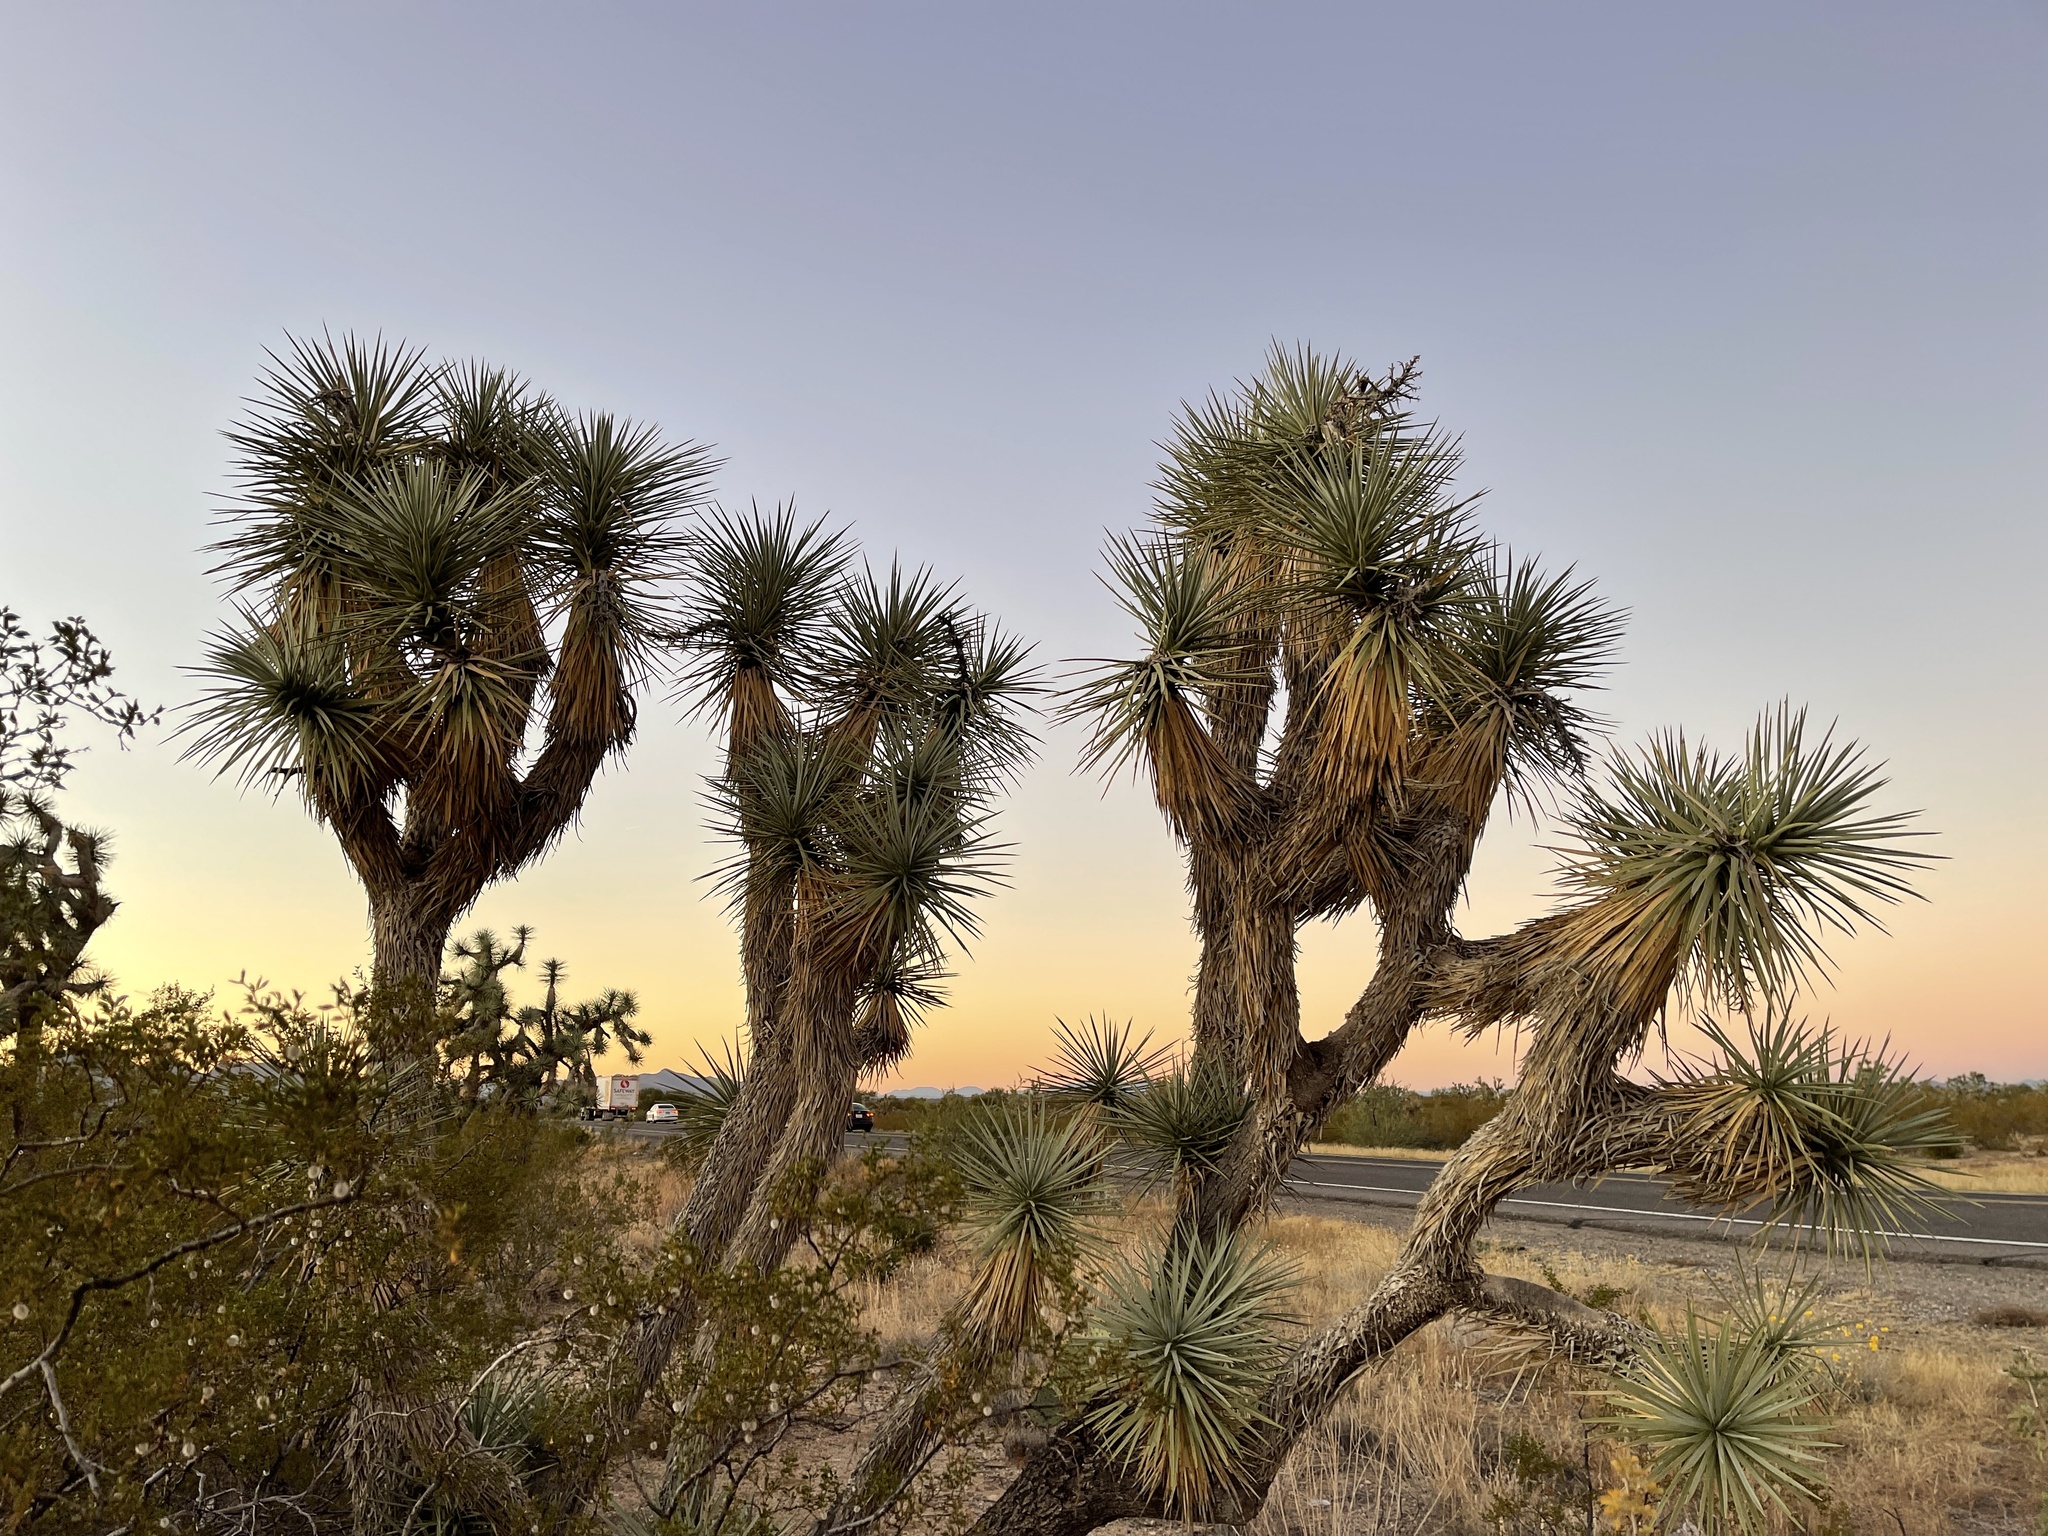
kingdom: Plantae
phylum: Tracheophyta
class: Liliopsida
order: Asparagales
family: Asparagaceae
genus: Yucca
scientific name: Yucca brevifolia
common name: Joshua tree
